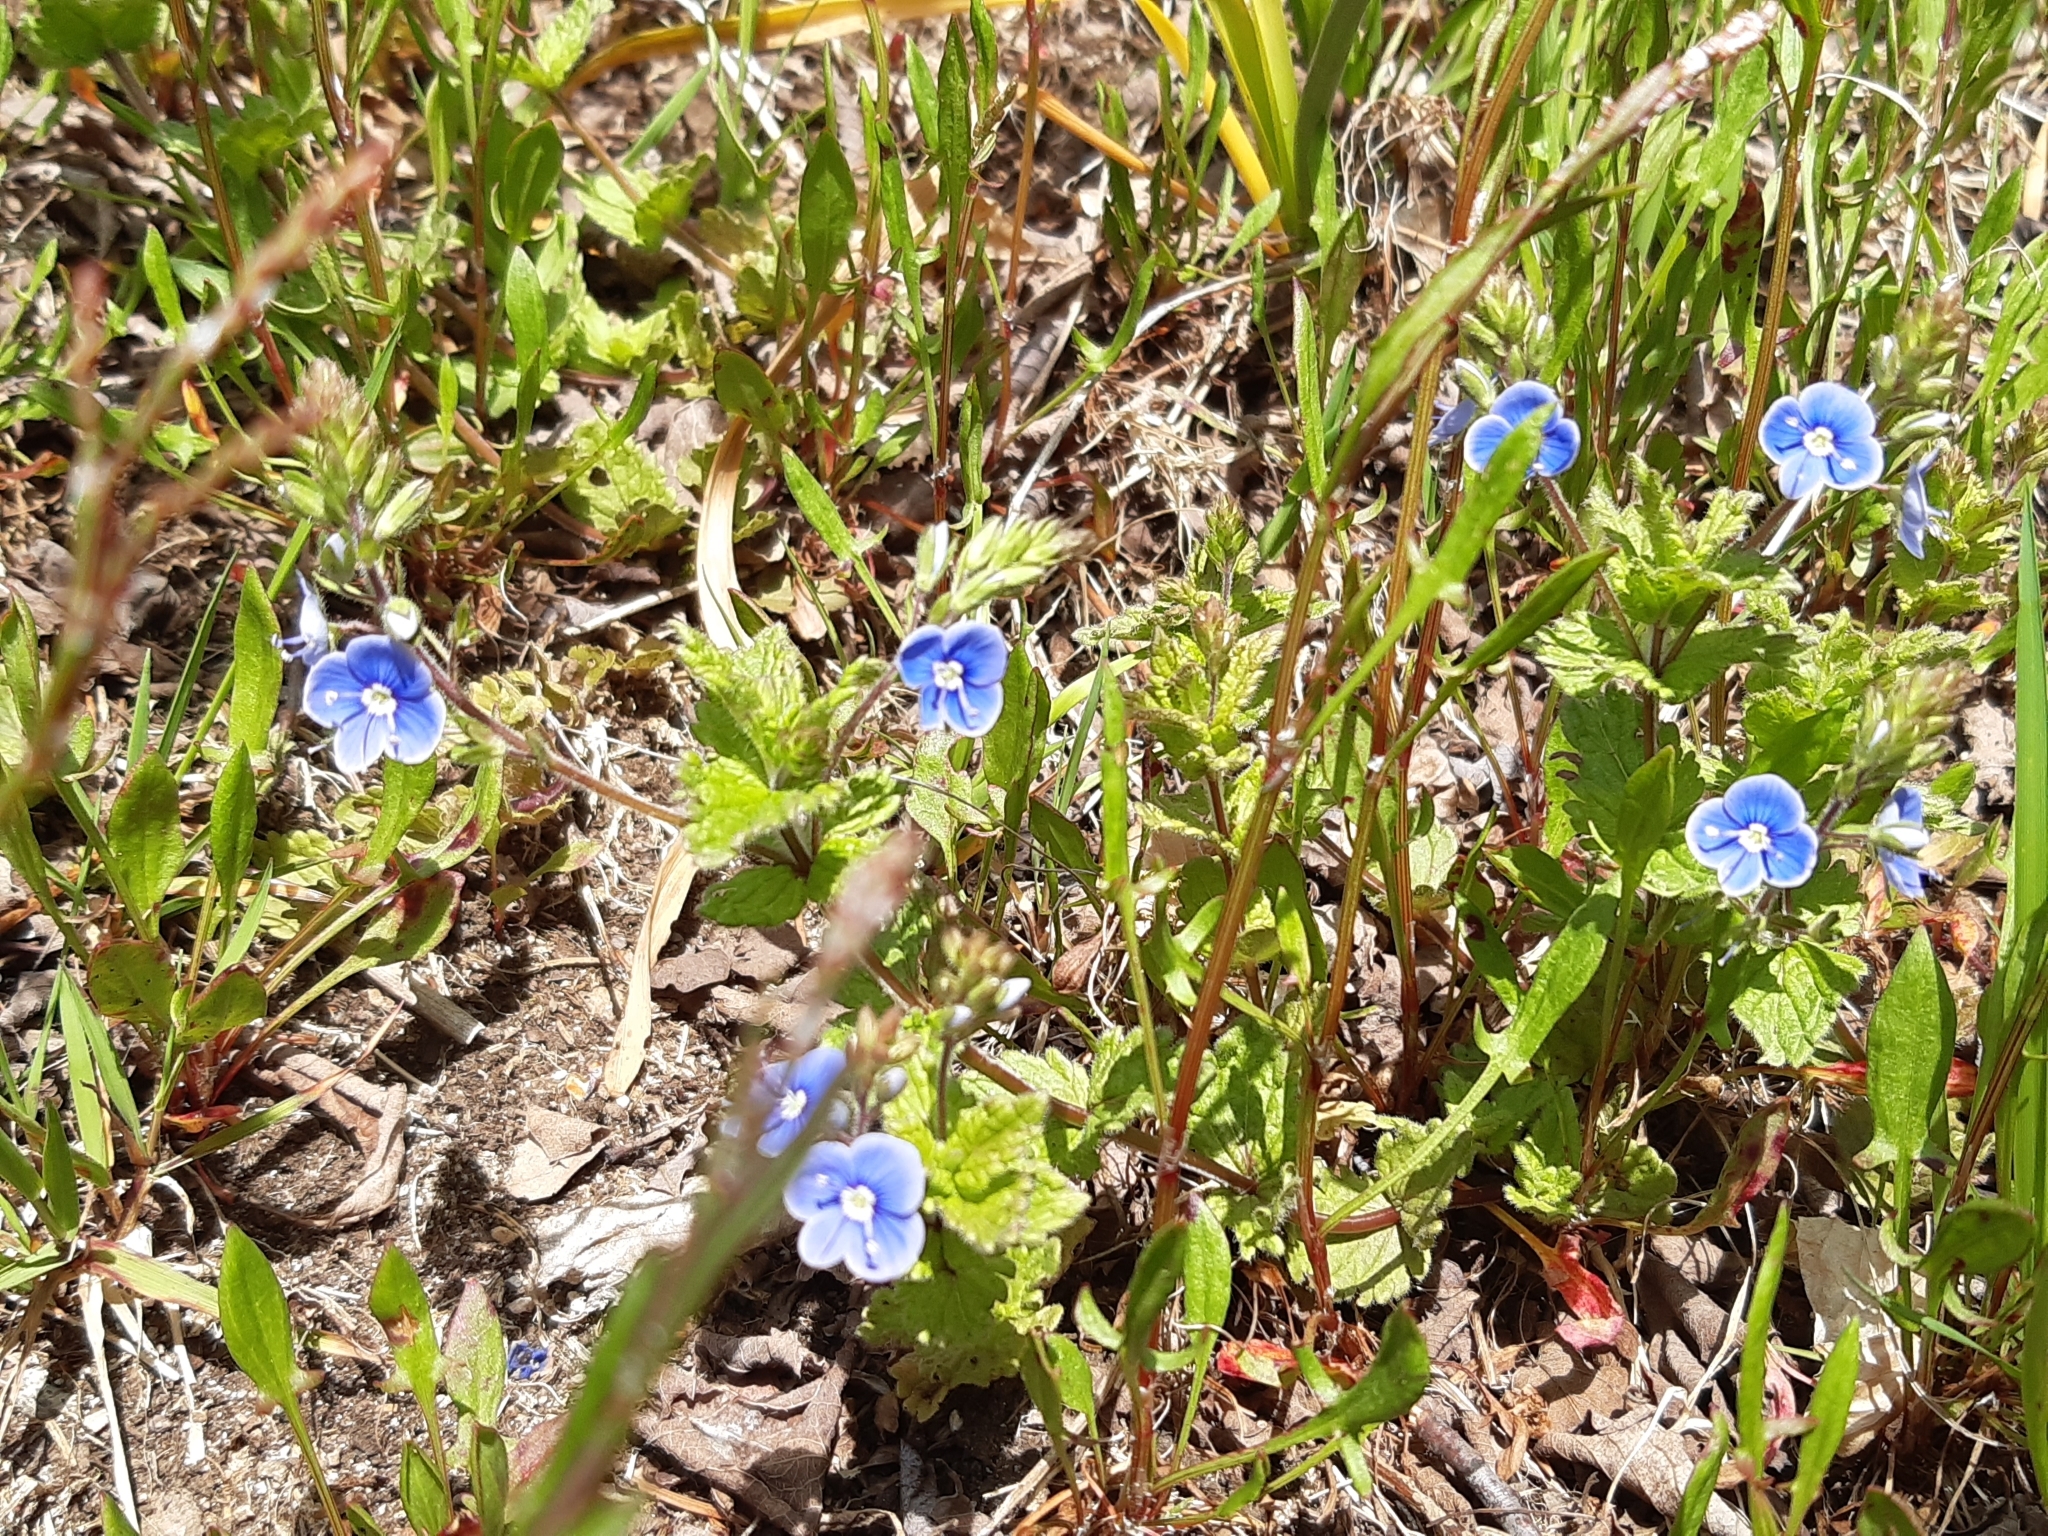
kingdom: Plantae
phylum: Tracheophyta
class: Magnoliopsida
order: Lamiales
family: Plantaginaceae
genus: Veronica
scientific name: Veronica chamaedrys
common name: Germander speedwell
